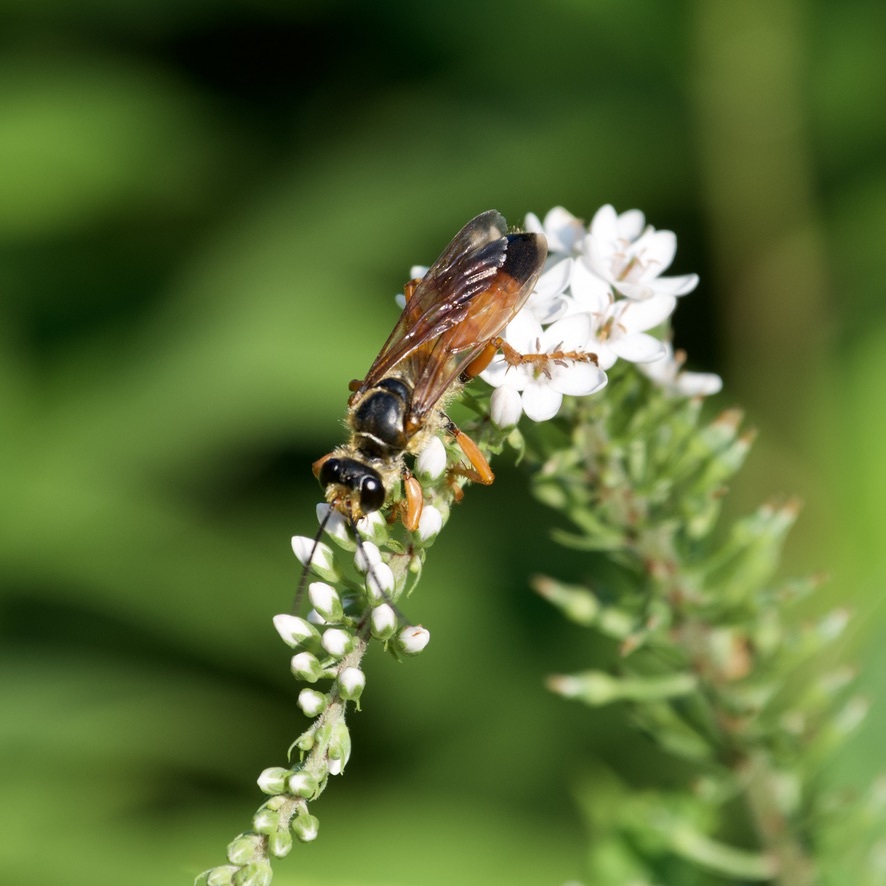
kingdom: Animalia
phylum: Arthropoda
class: Insecta
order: Hymenoptera
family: Sphecidae
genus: Sphex
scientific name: Sphex ichneumoneus
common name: Great golden digger wasp
